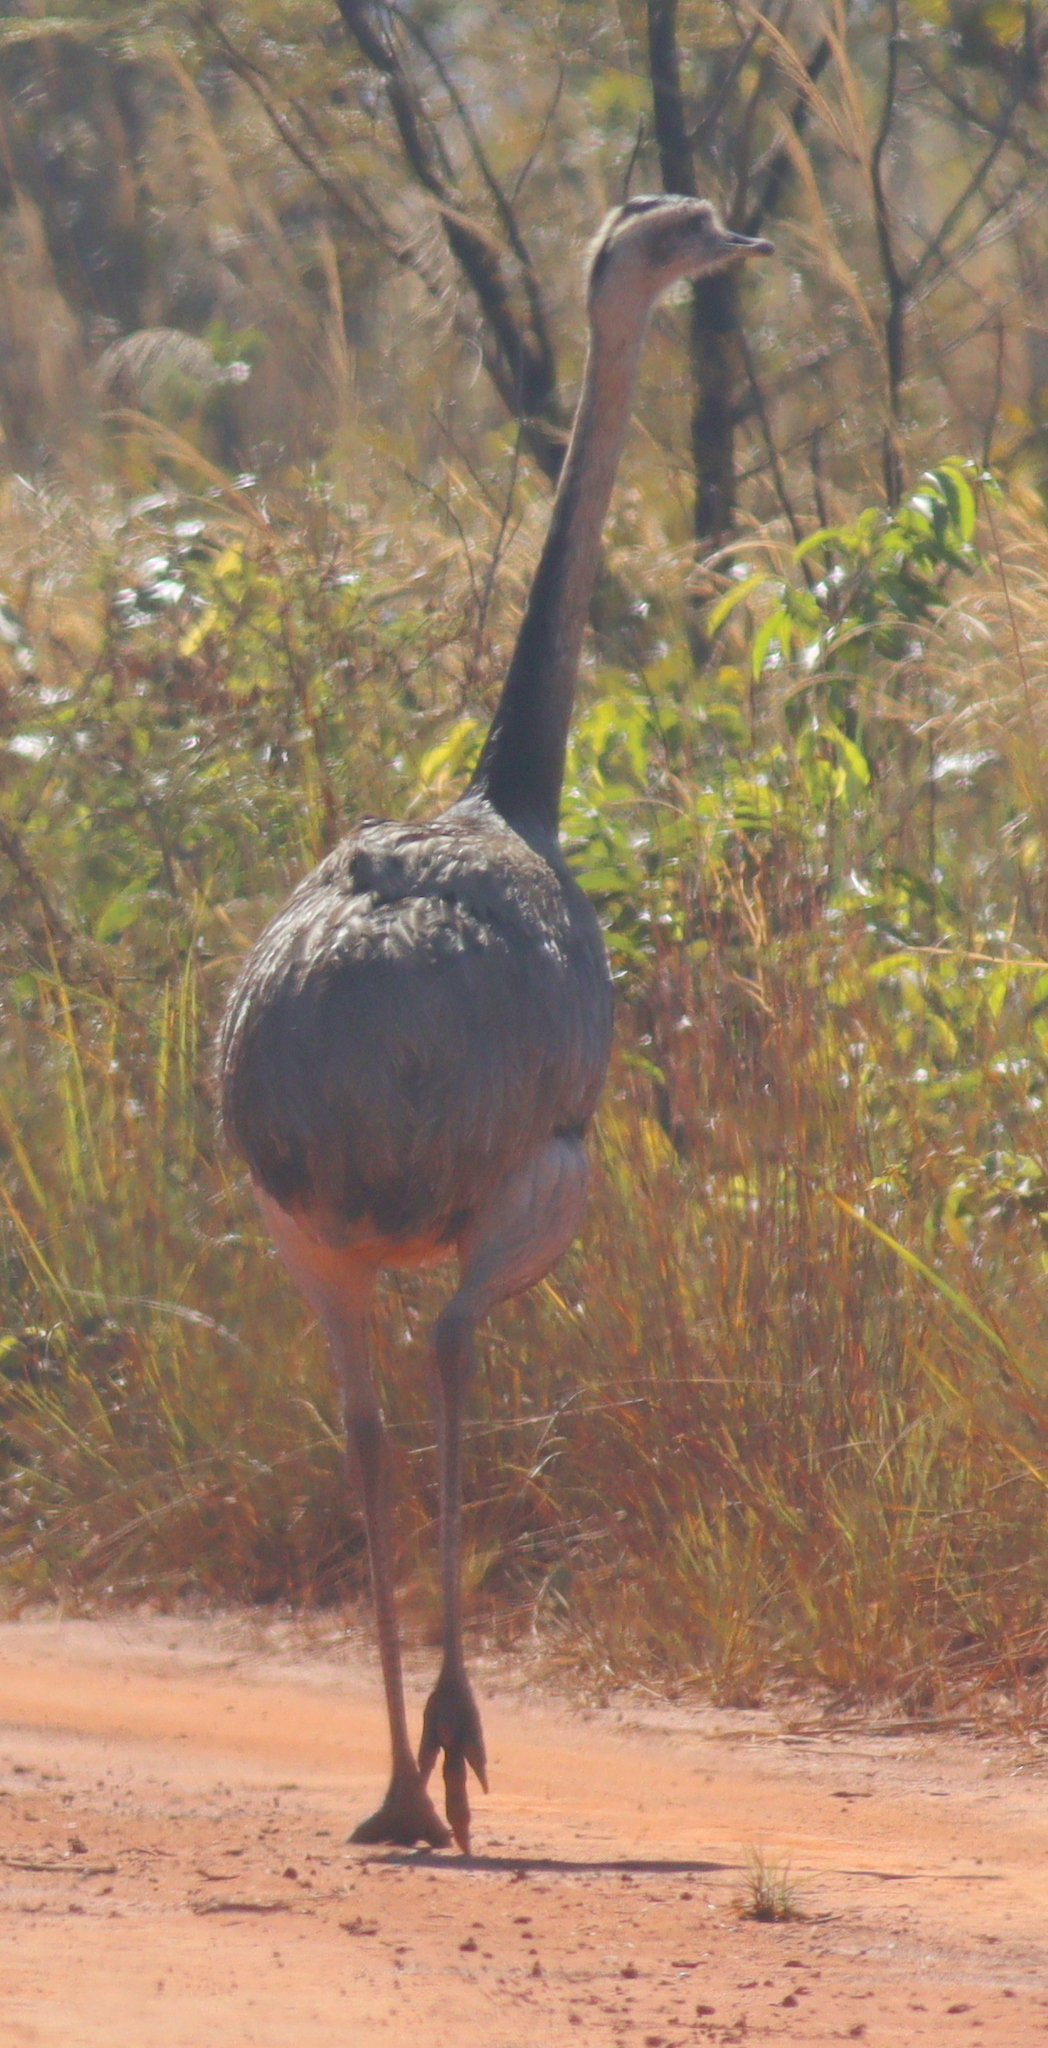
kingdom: Animalia
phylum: Chordata
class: Aves
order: Rheiformes
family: Rheidae
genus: Rhea
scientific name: Rhea americana
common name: Greater rhea
